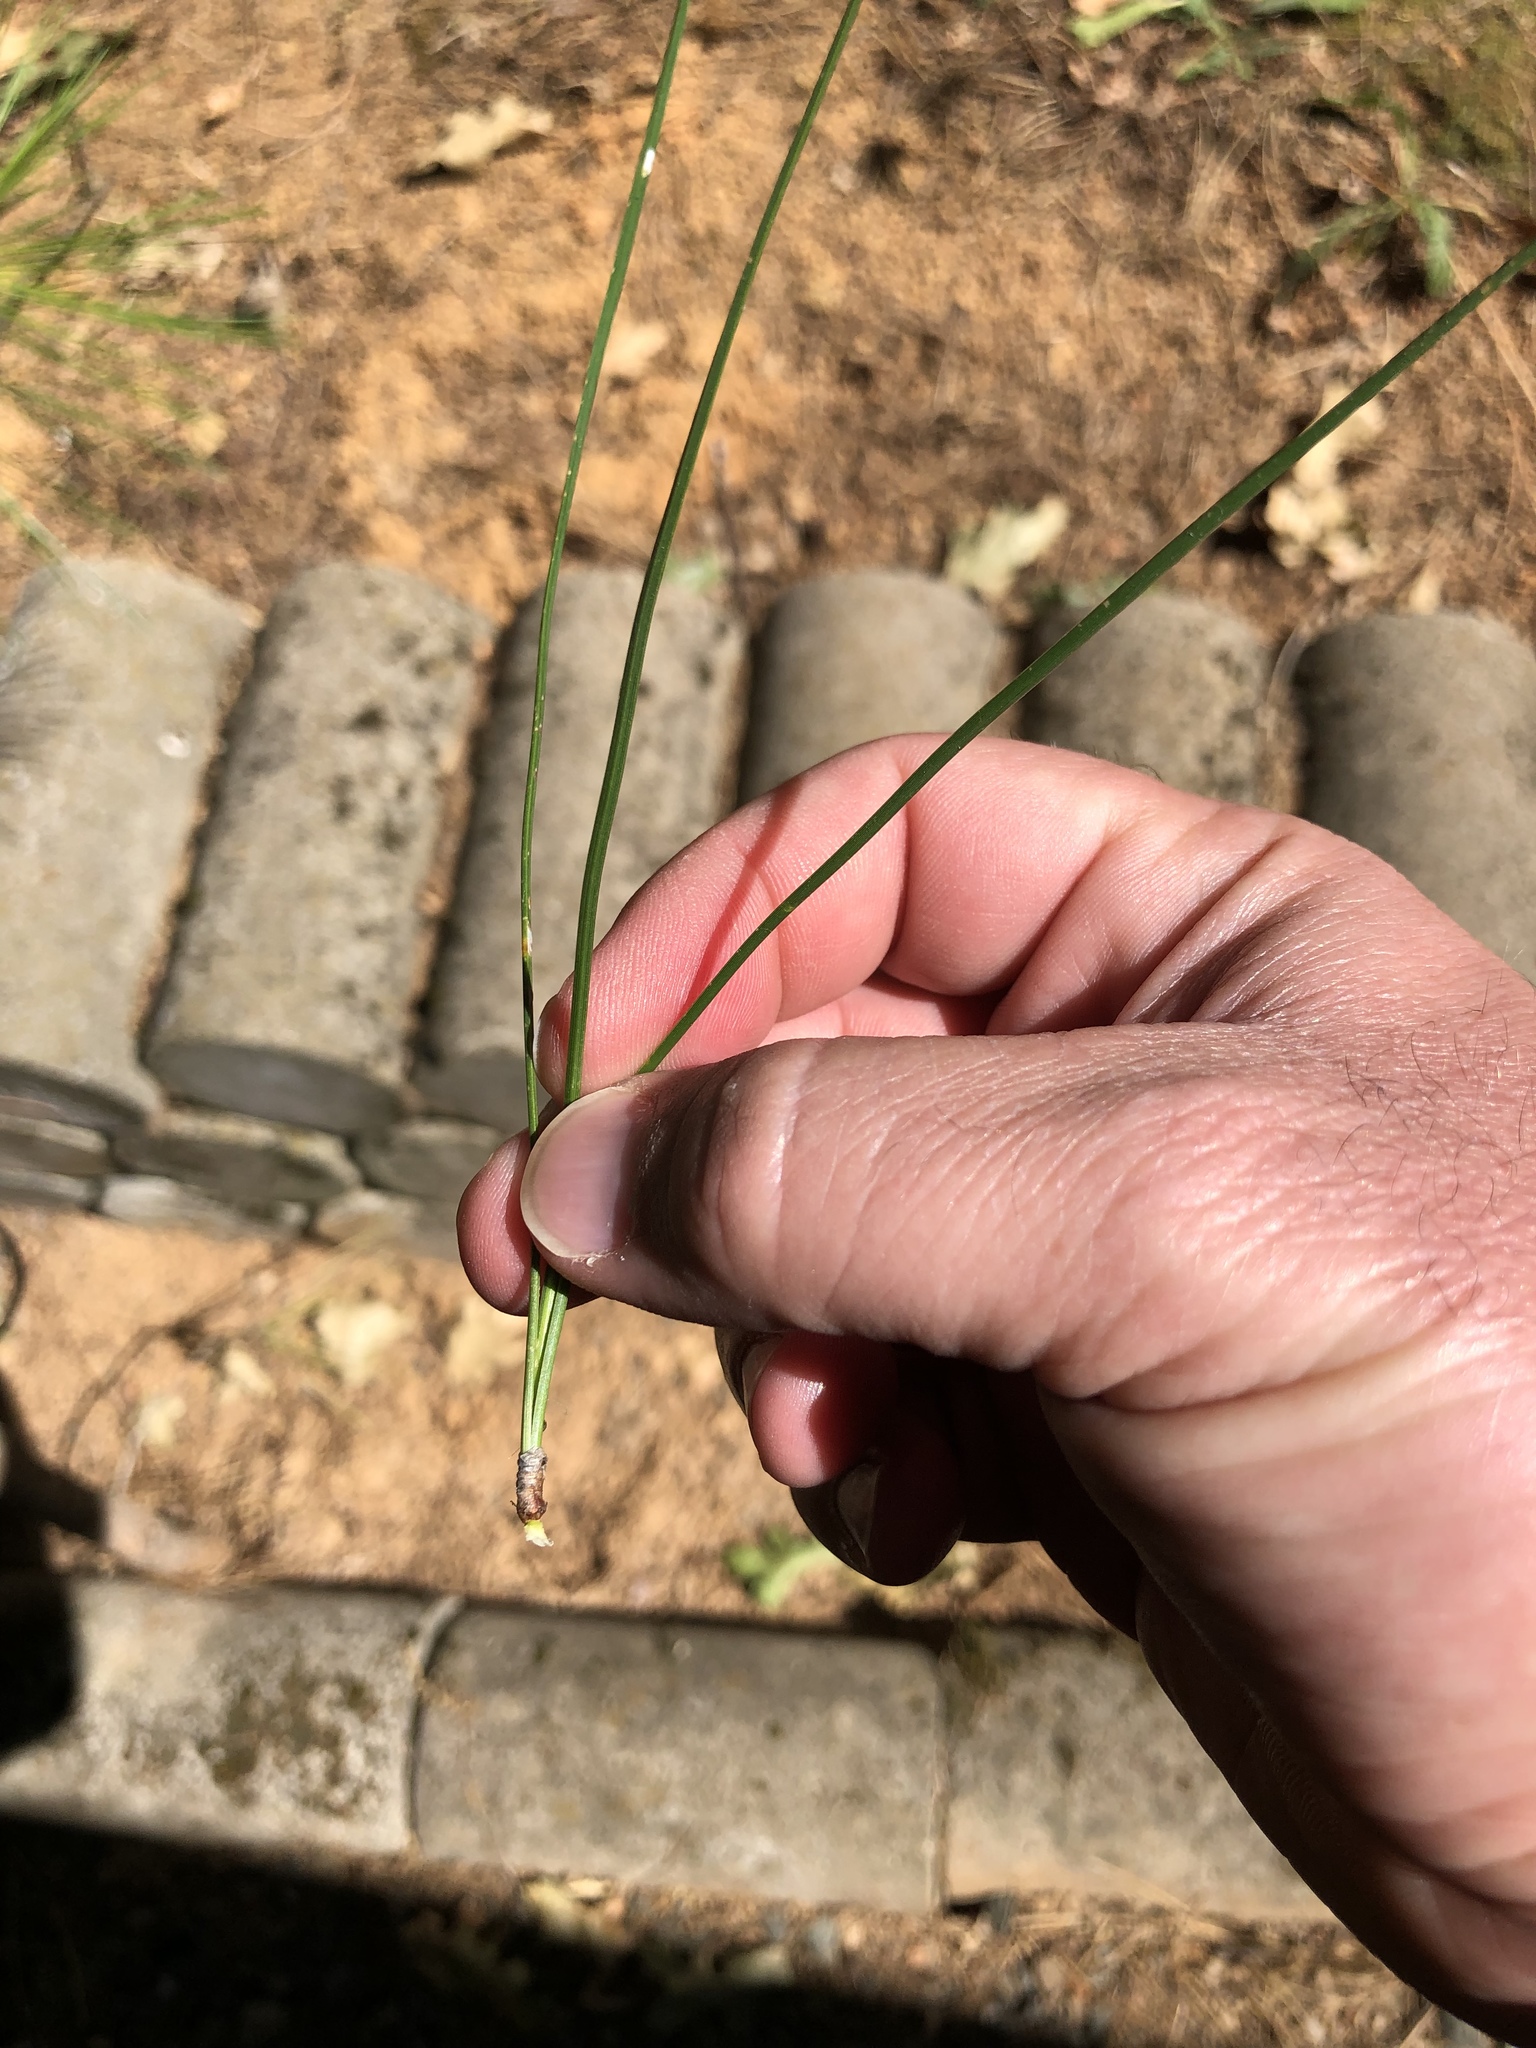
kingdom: Plantae
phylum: Tracheophyta
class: Pinopsida
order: Pinales
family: Pinaceae
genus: Pinus
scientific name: Pinus ponderosa
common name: Western yellow-pine
